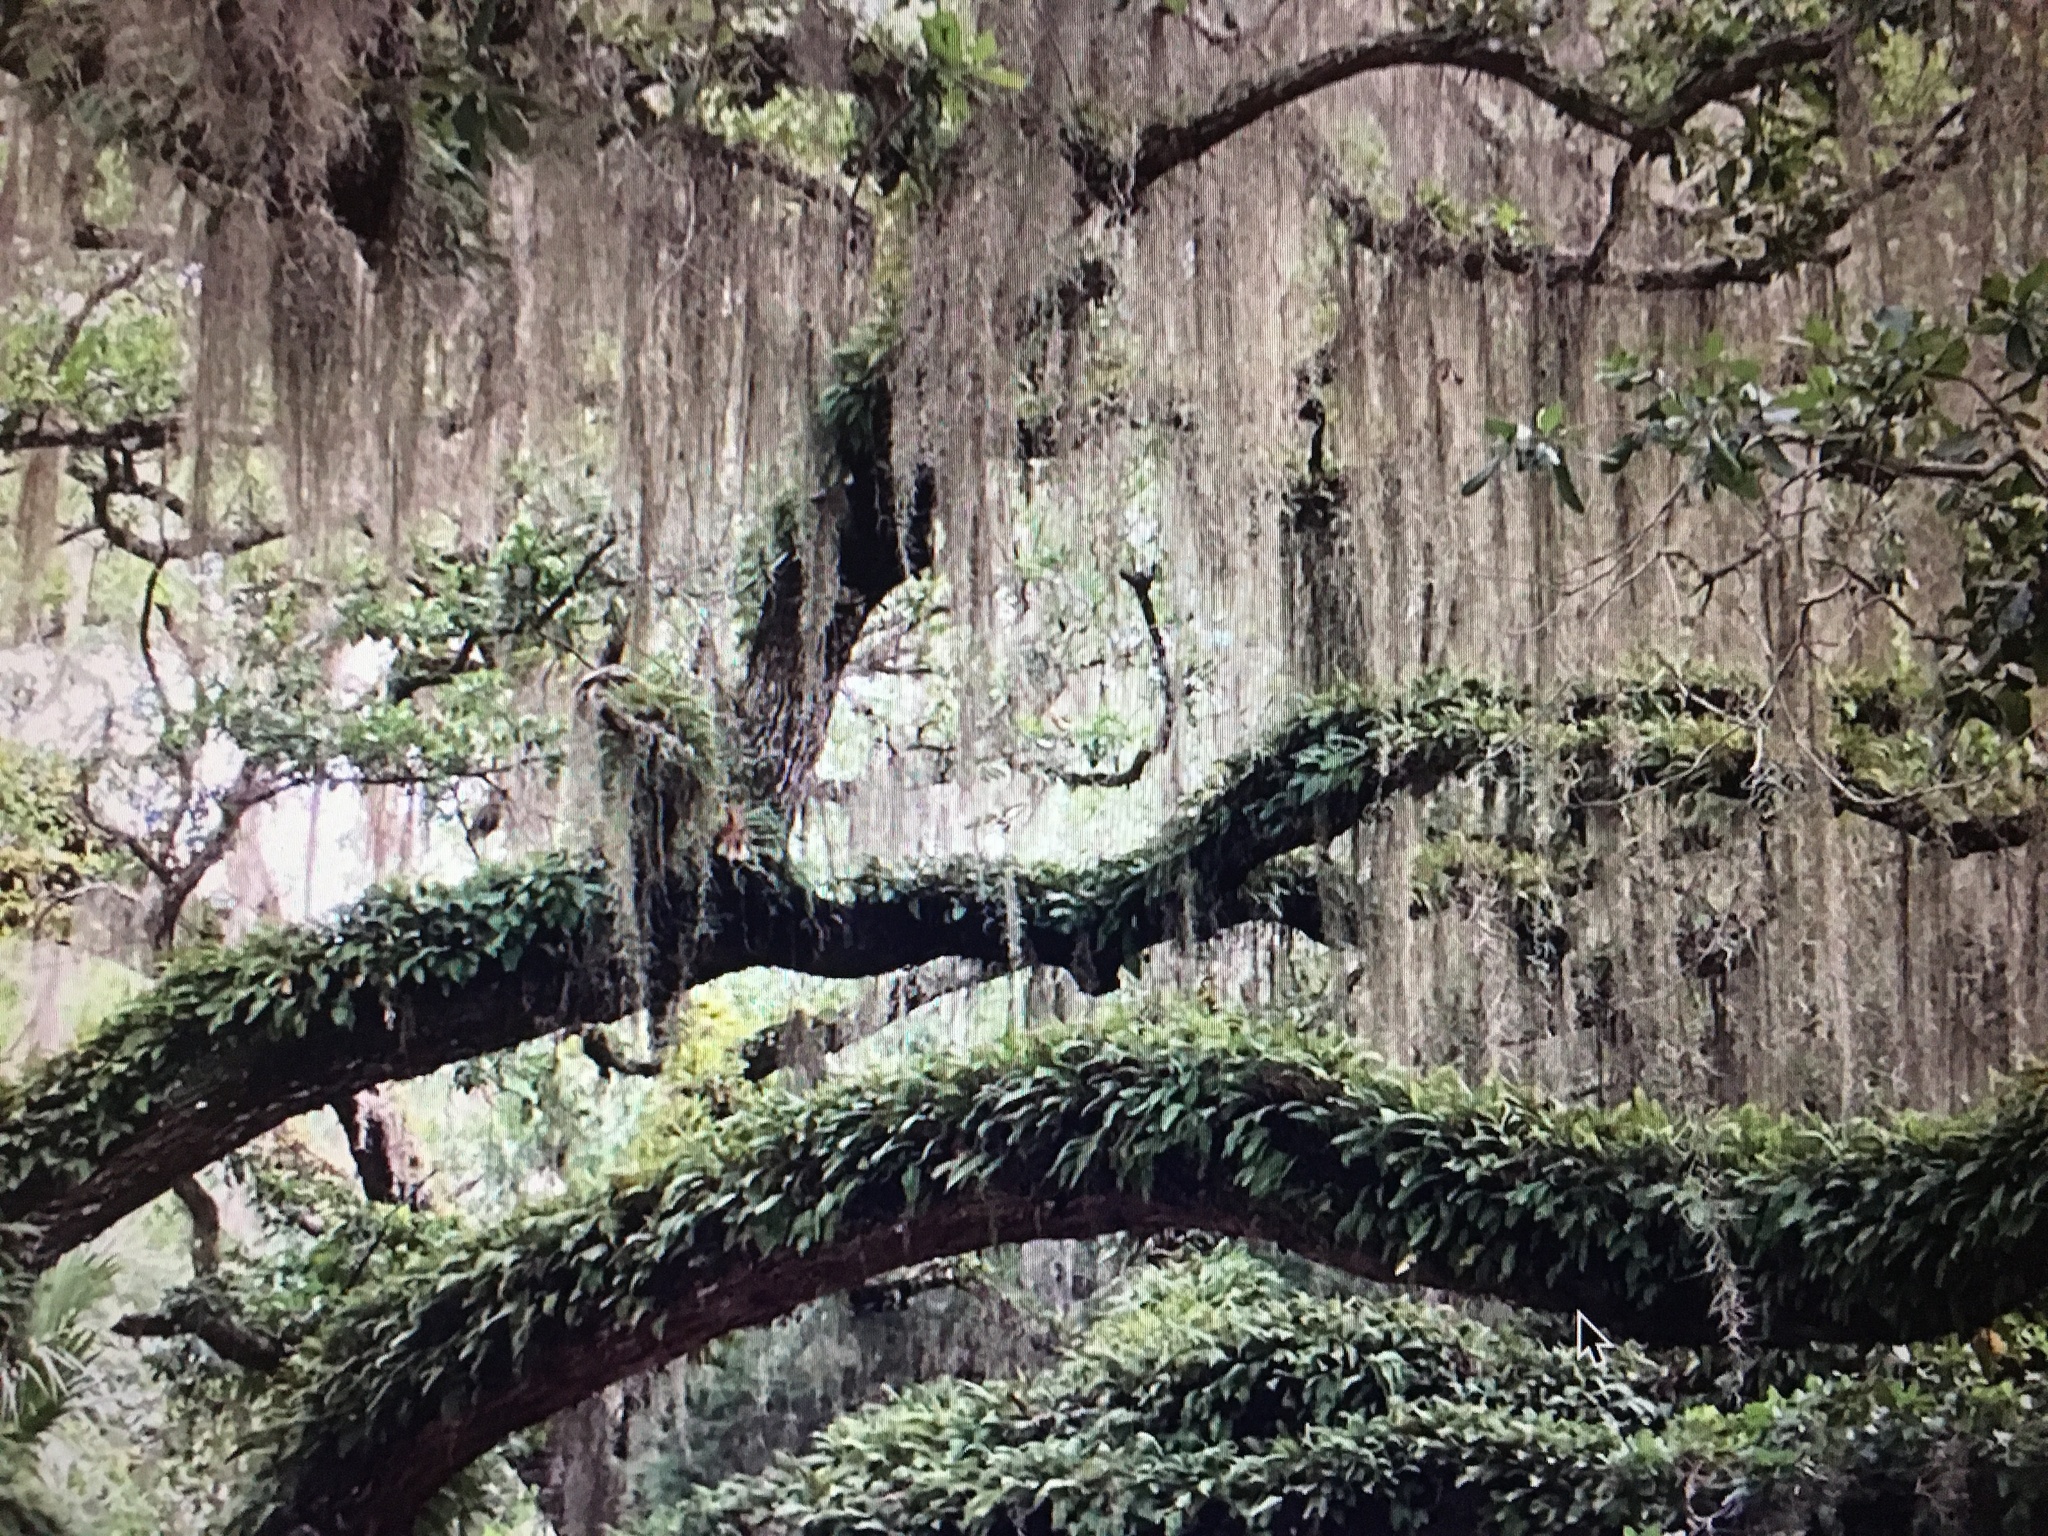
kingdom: Plantae
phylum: Tracheophyta
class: Liliopsida
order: Poales
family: Bromeliaceae
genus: Tillandsia
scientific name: Tillandsia usneoides
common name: Spanish moss
